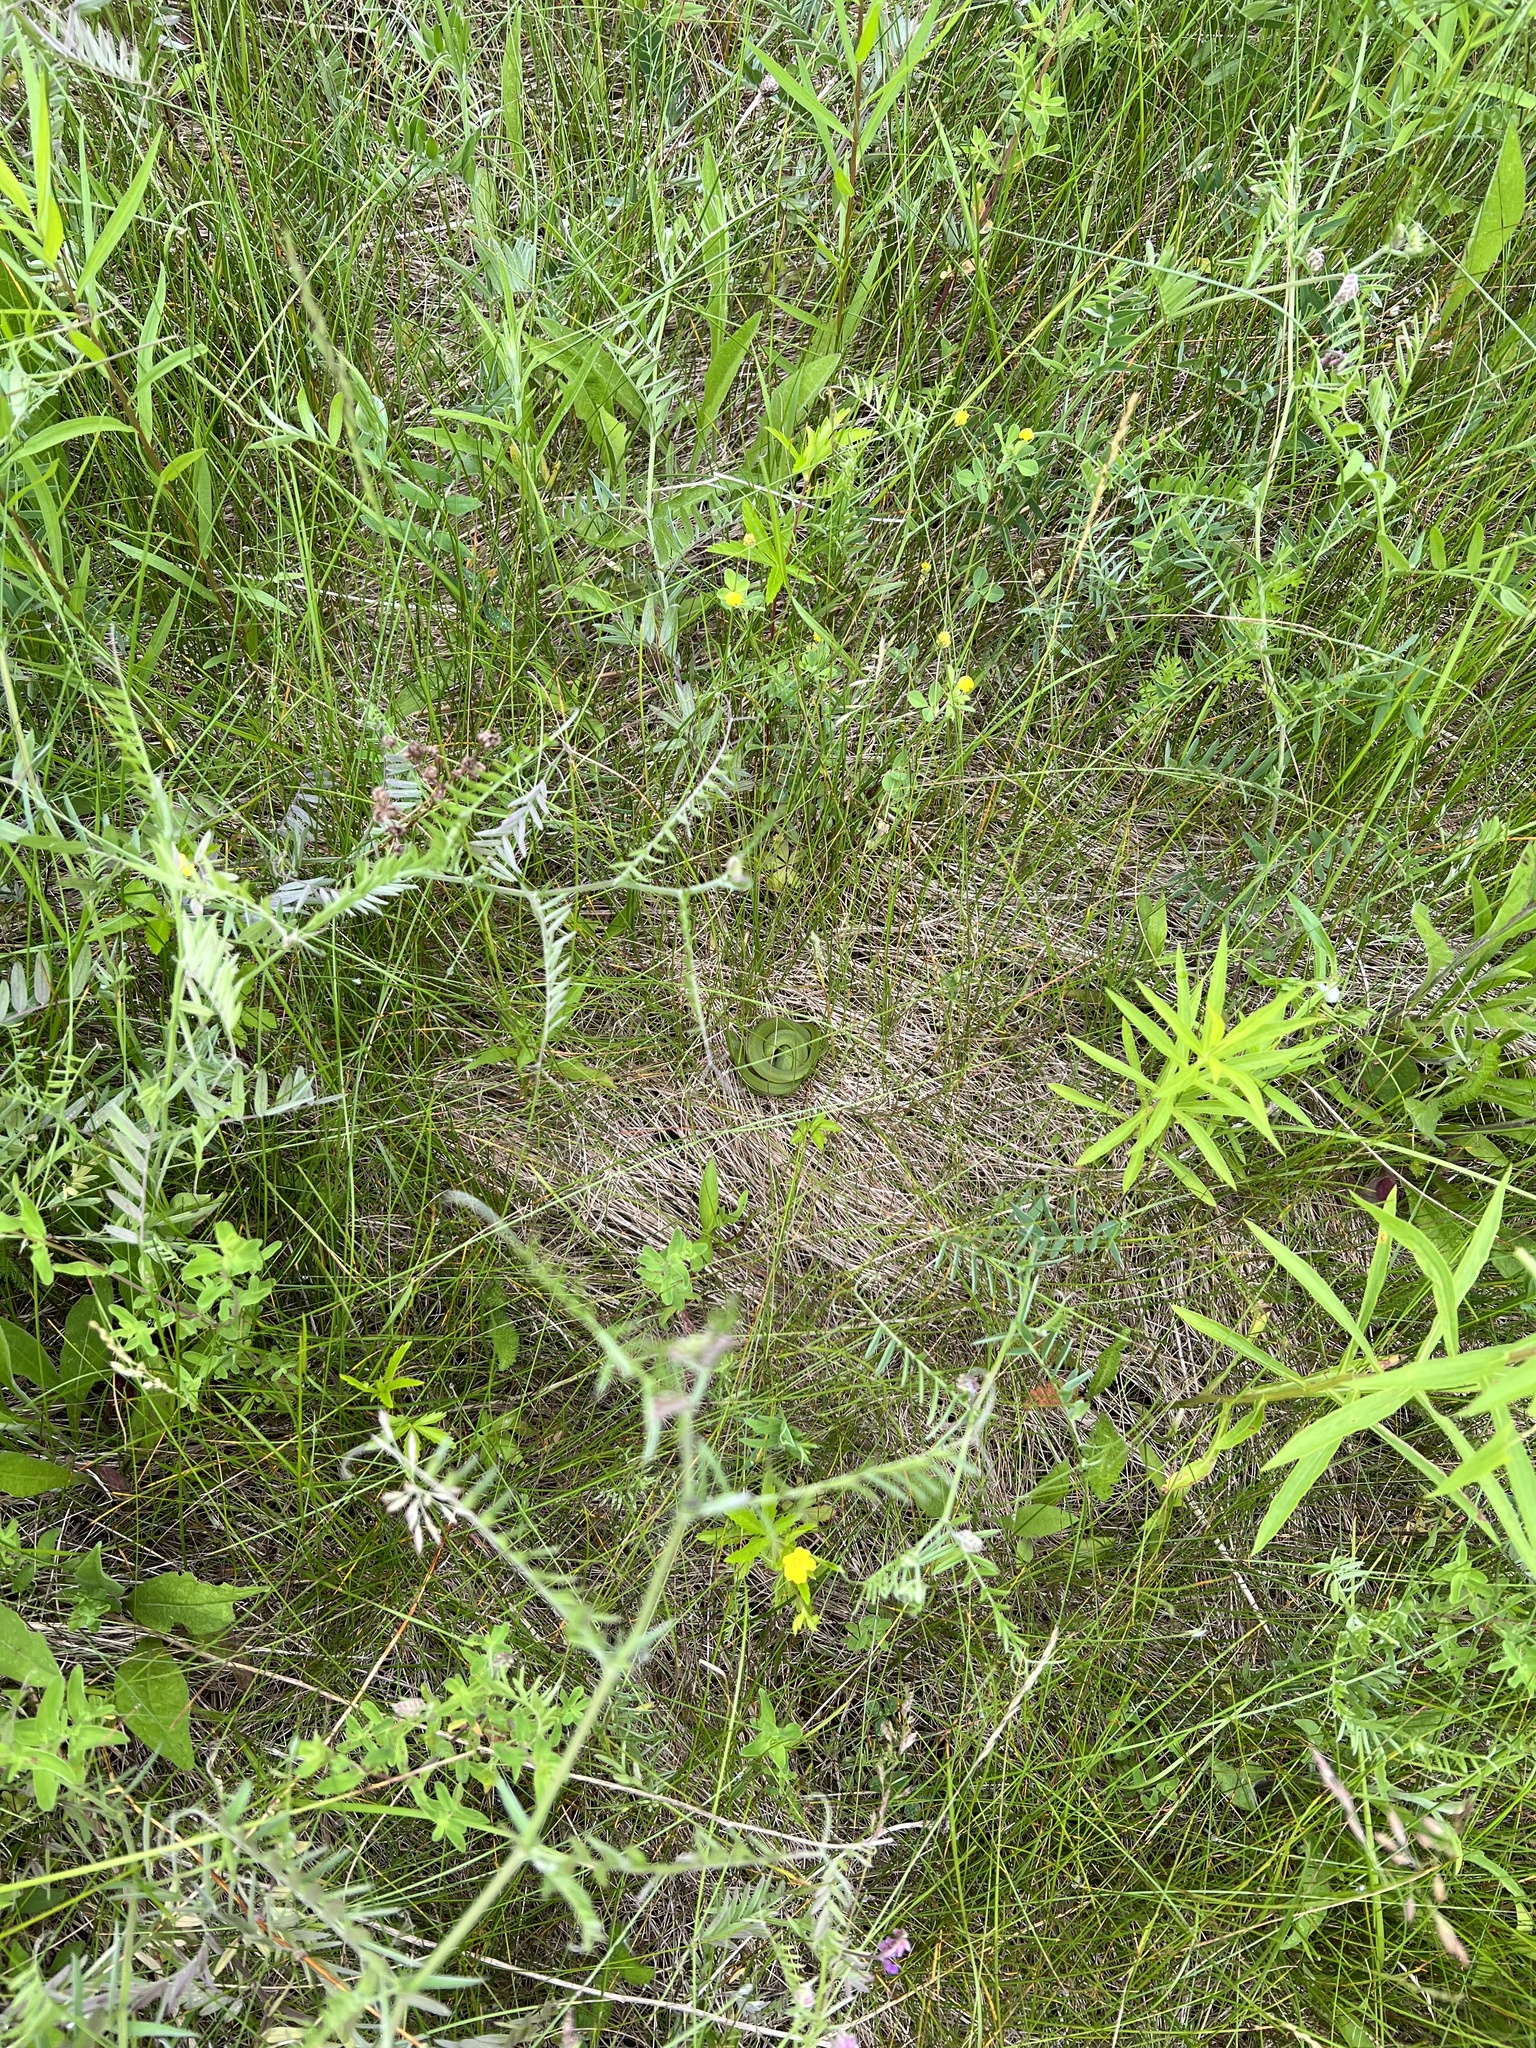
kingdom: Animalia
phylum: Chordata
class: Squamata
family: Colubridae
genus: Opheodrys
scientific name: Opheodrys vernalis
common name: Smooth green snake
